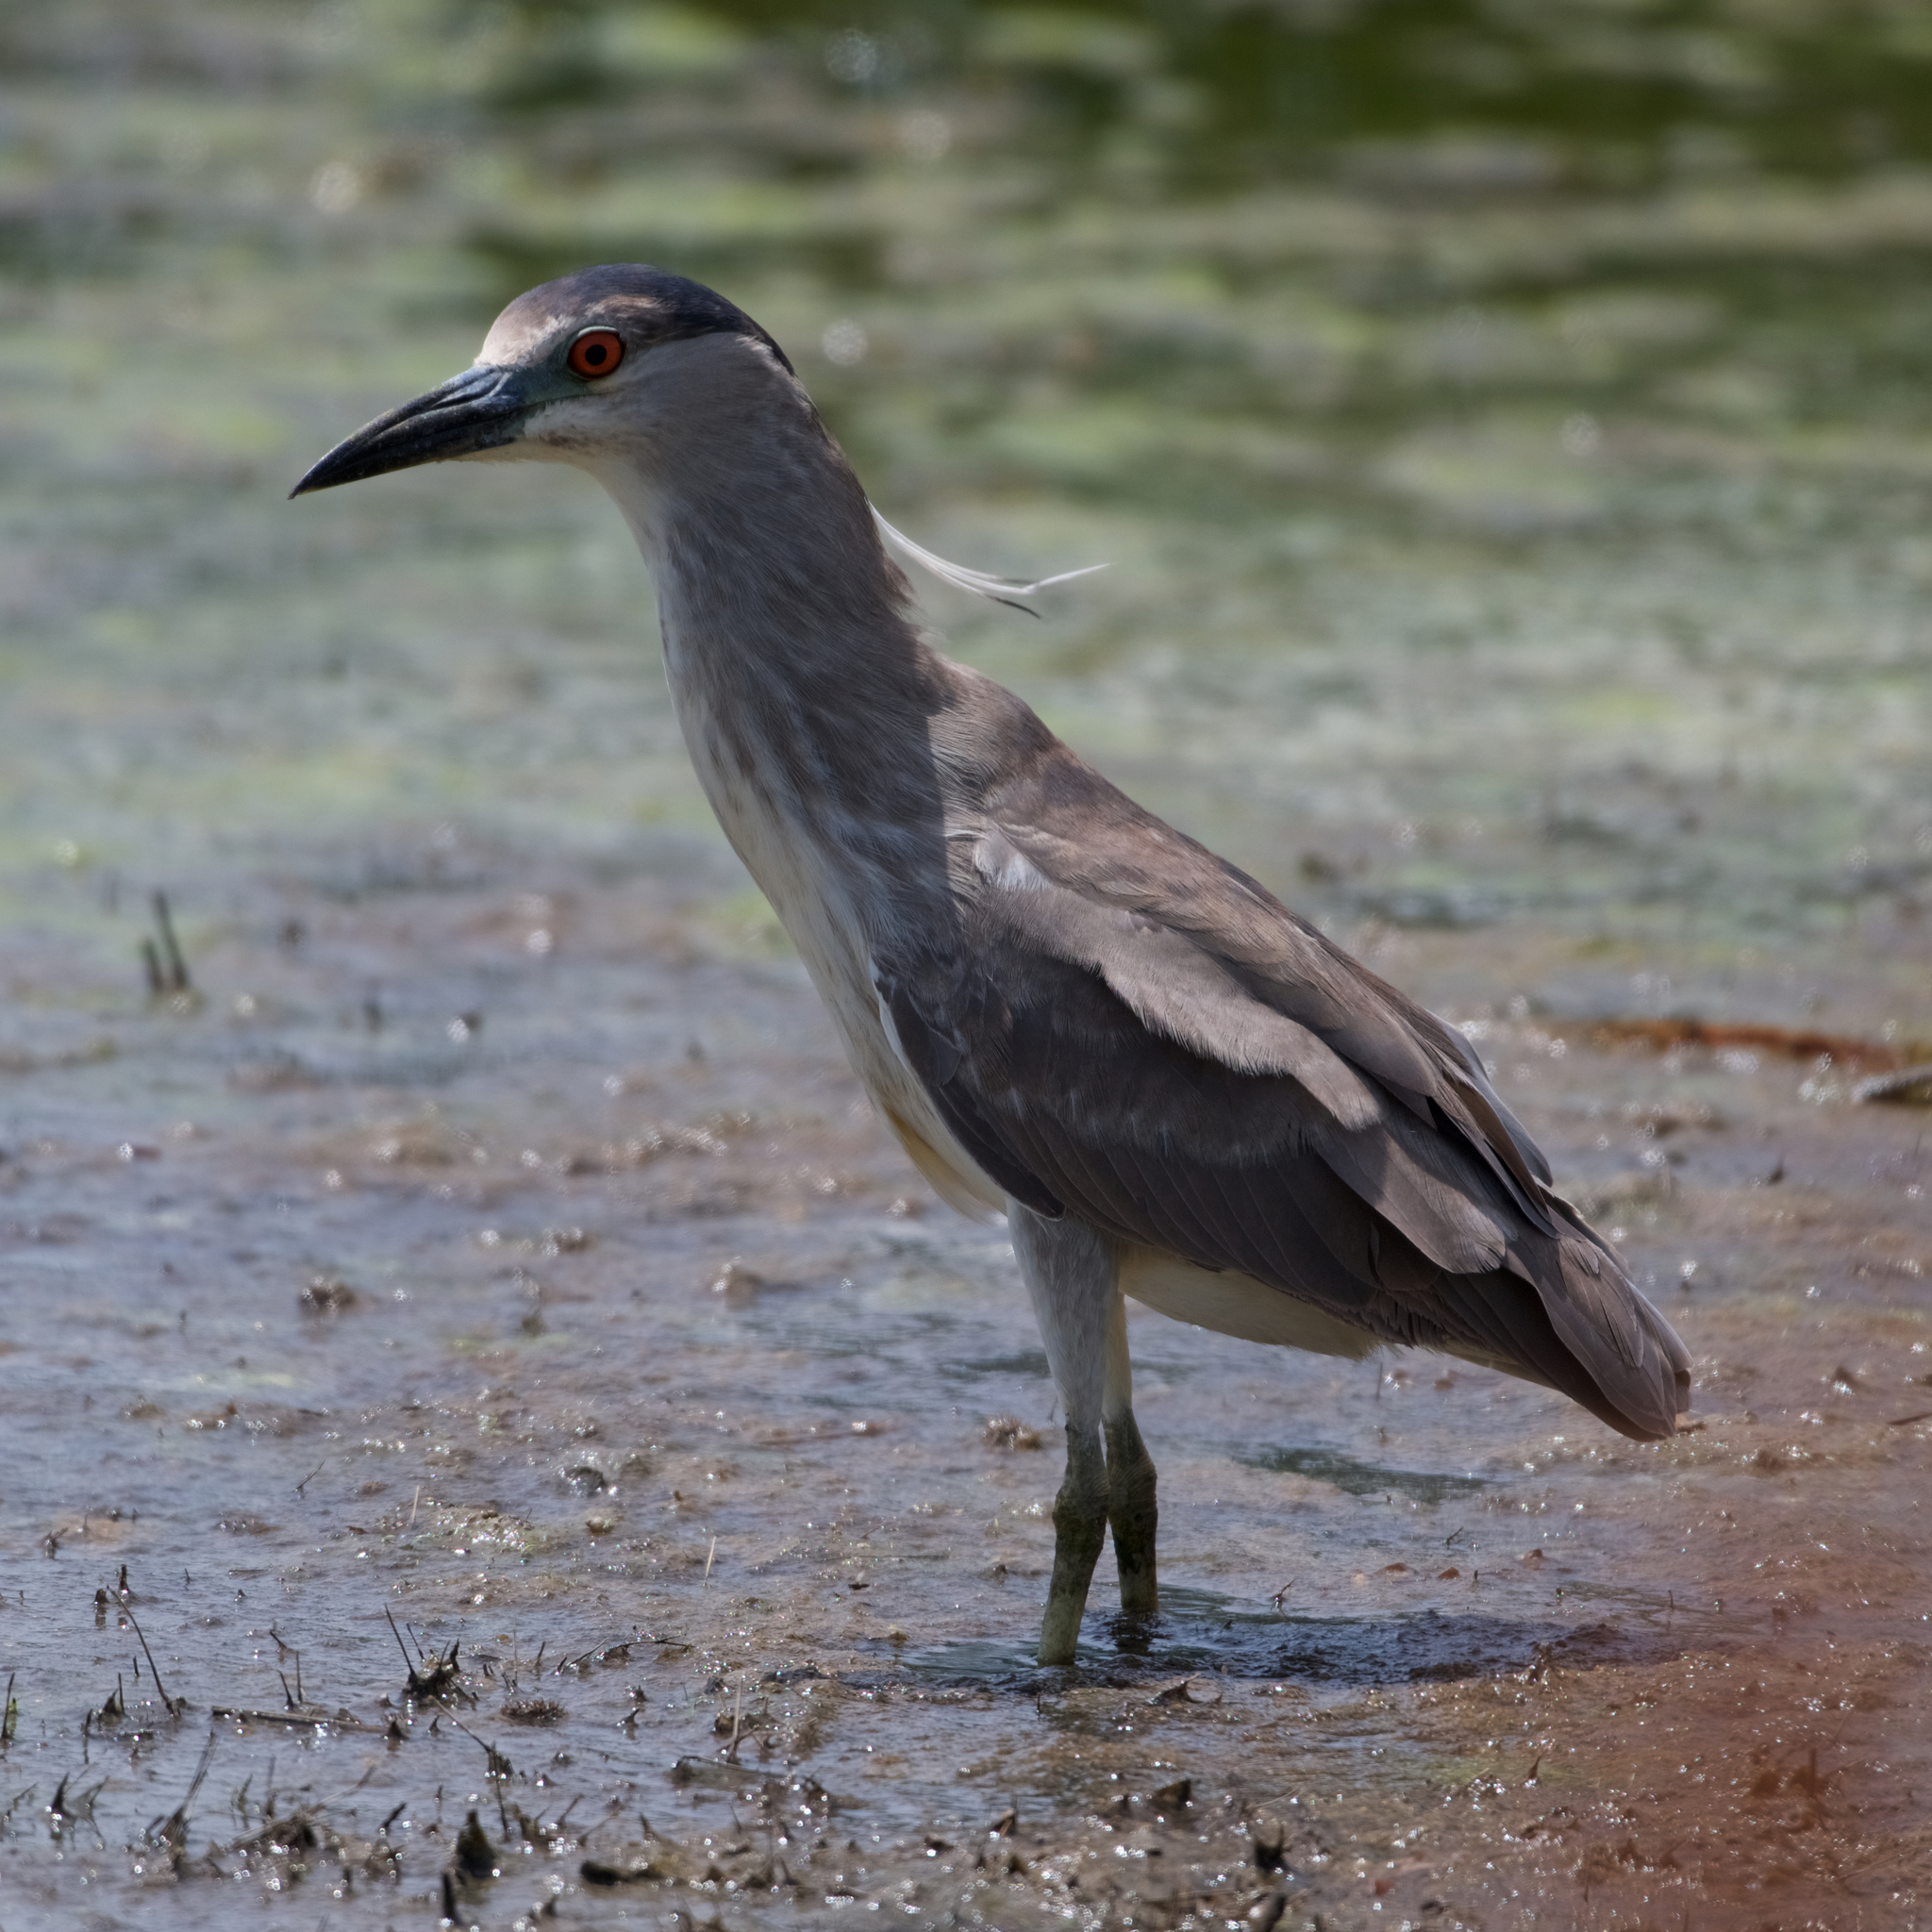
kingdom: Animalia
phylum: Chordata
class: Aves
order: Pelecaniformes
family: Ardeidae
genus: Nycticorax
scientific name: Nycticorax nycticorax
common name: Black-crowned night heron
